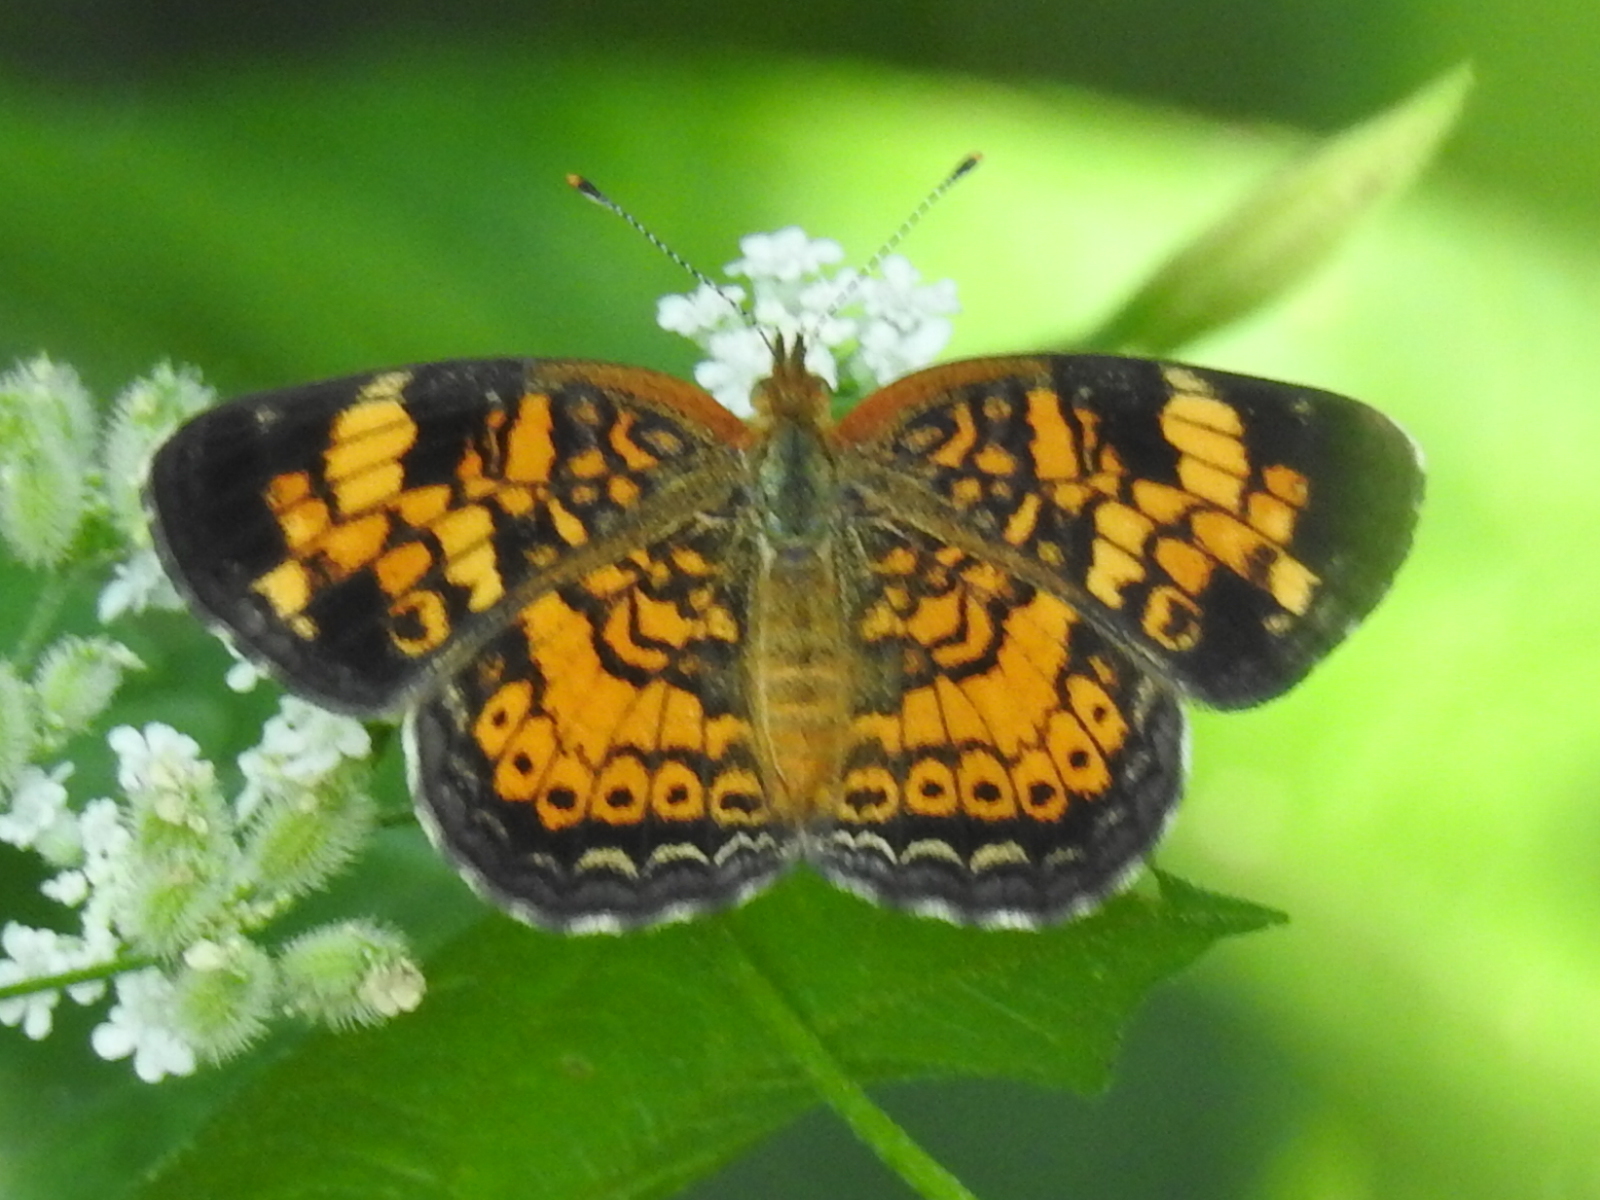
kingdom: Animalia
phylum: Arthropoda
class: Insecta
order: Lepidoptera
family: Nymphalidae
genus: Phyciodes
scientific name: Phyciodes tharos
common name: Pearl crescent
